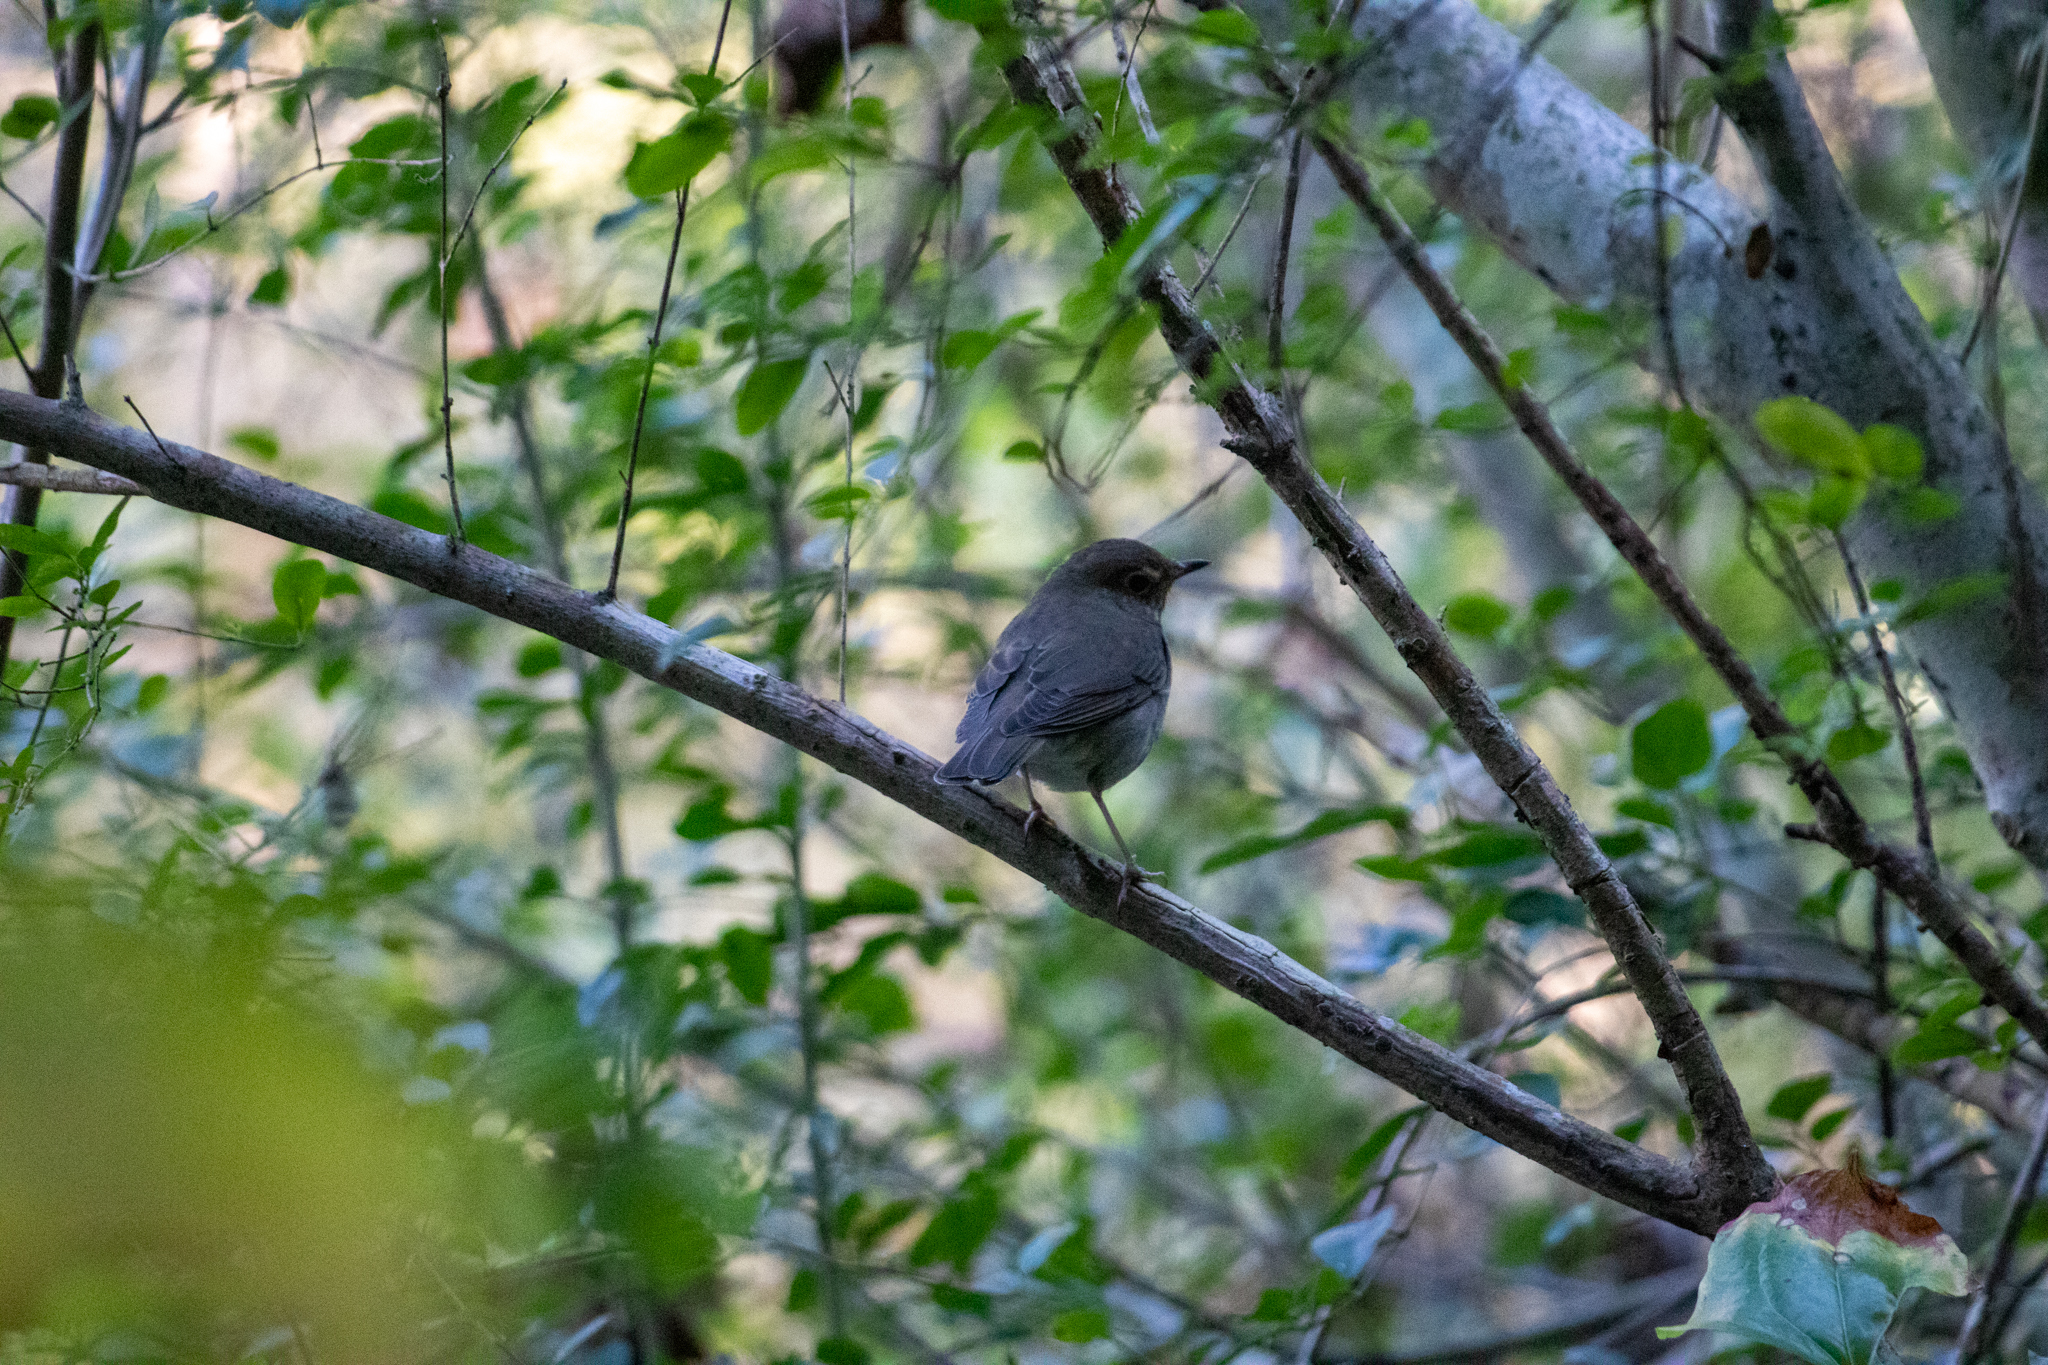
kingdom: Animalia
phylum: Chordata
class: Aves
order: Passeriformes
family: Turdidae
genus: Catharus
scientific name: Catharus ustulatus
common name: Swainson's thrush
